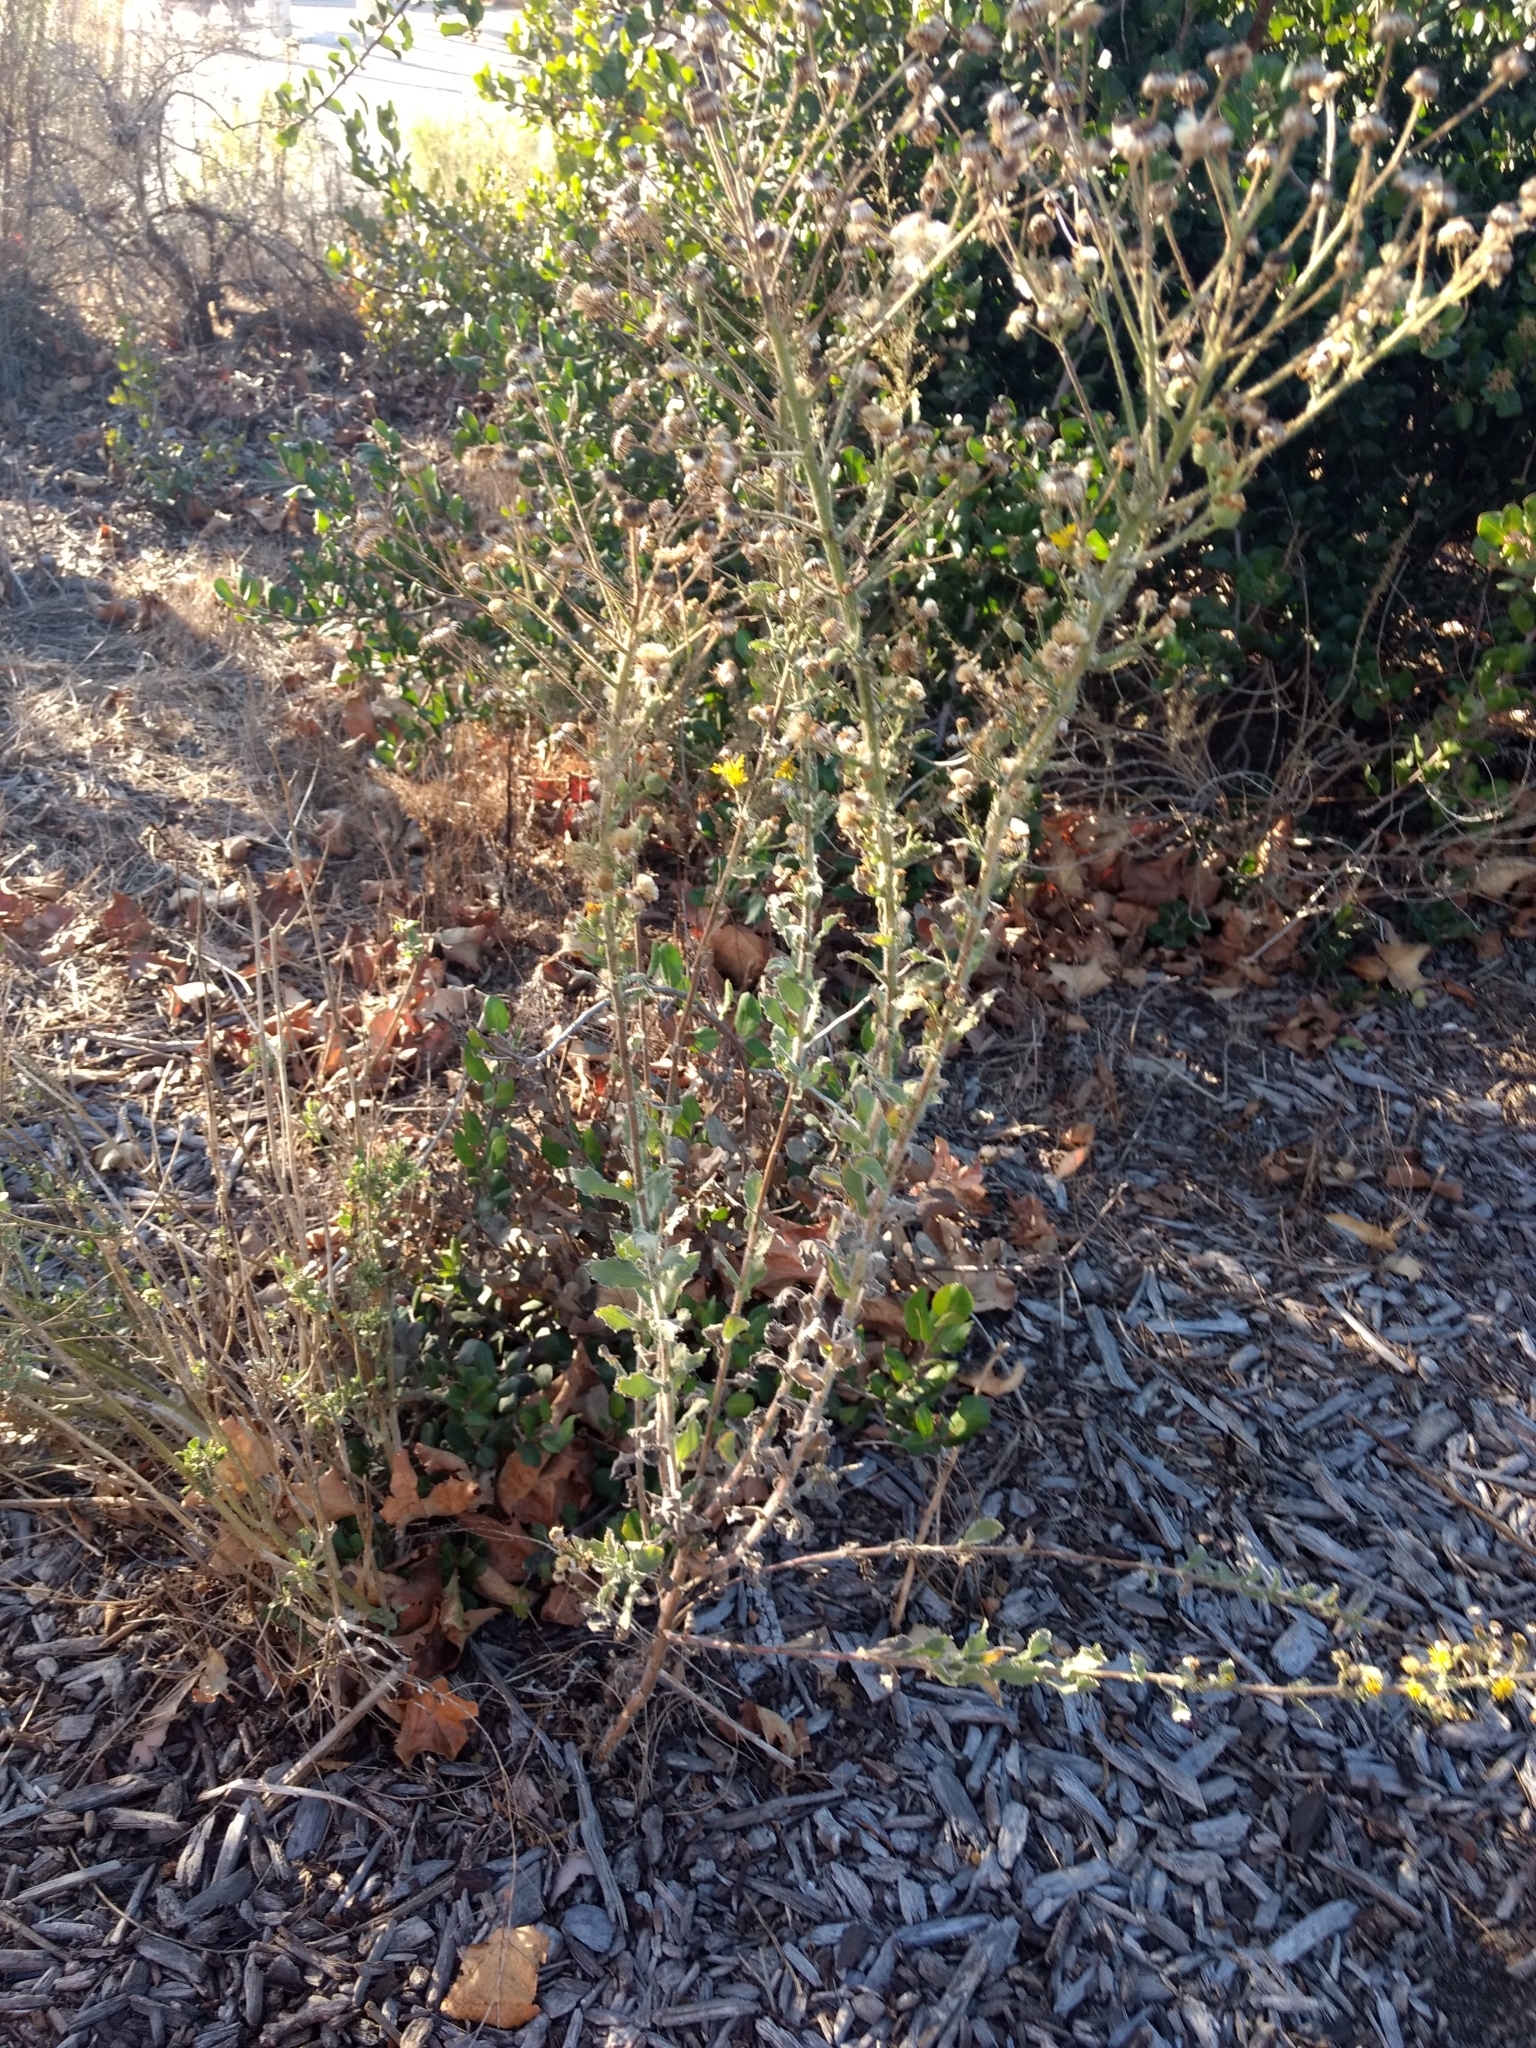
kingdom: Plantae
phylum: Tracheophyta
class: Magnoliopsida
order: Asterales
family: Asteraceae
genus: Heterotheca
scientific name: Heterotheca grandiflora
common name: Telegraphweed
